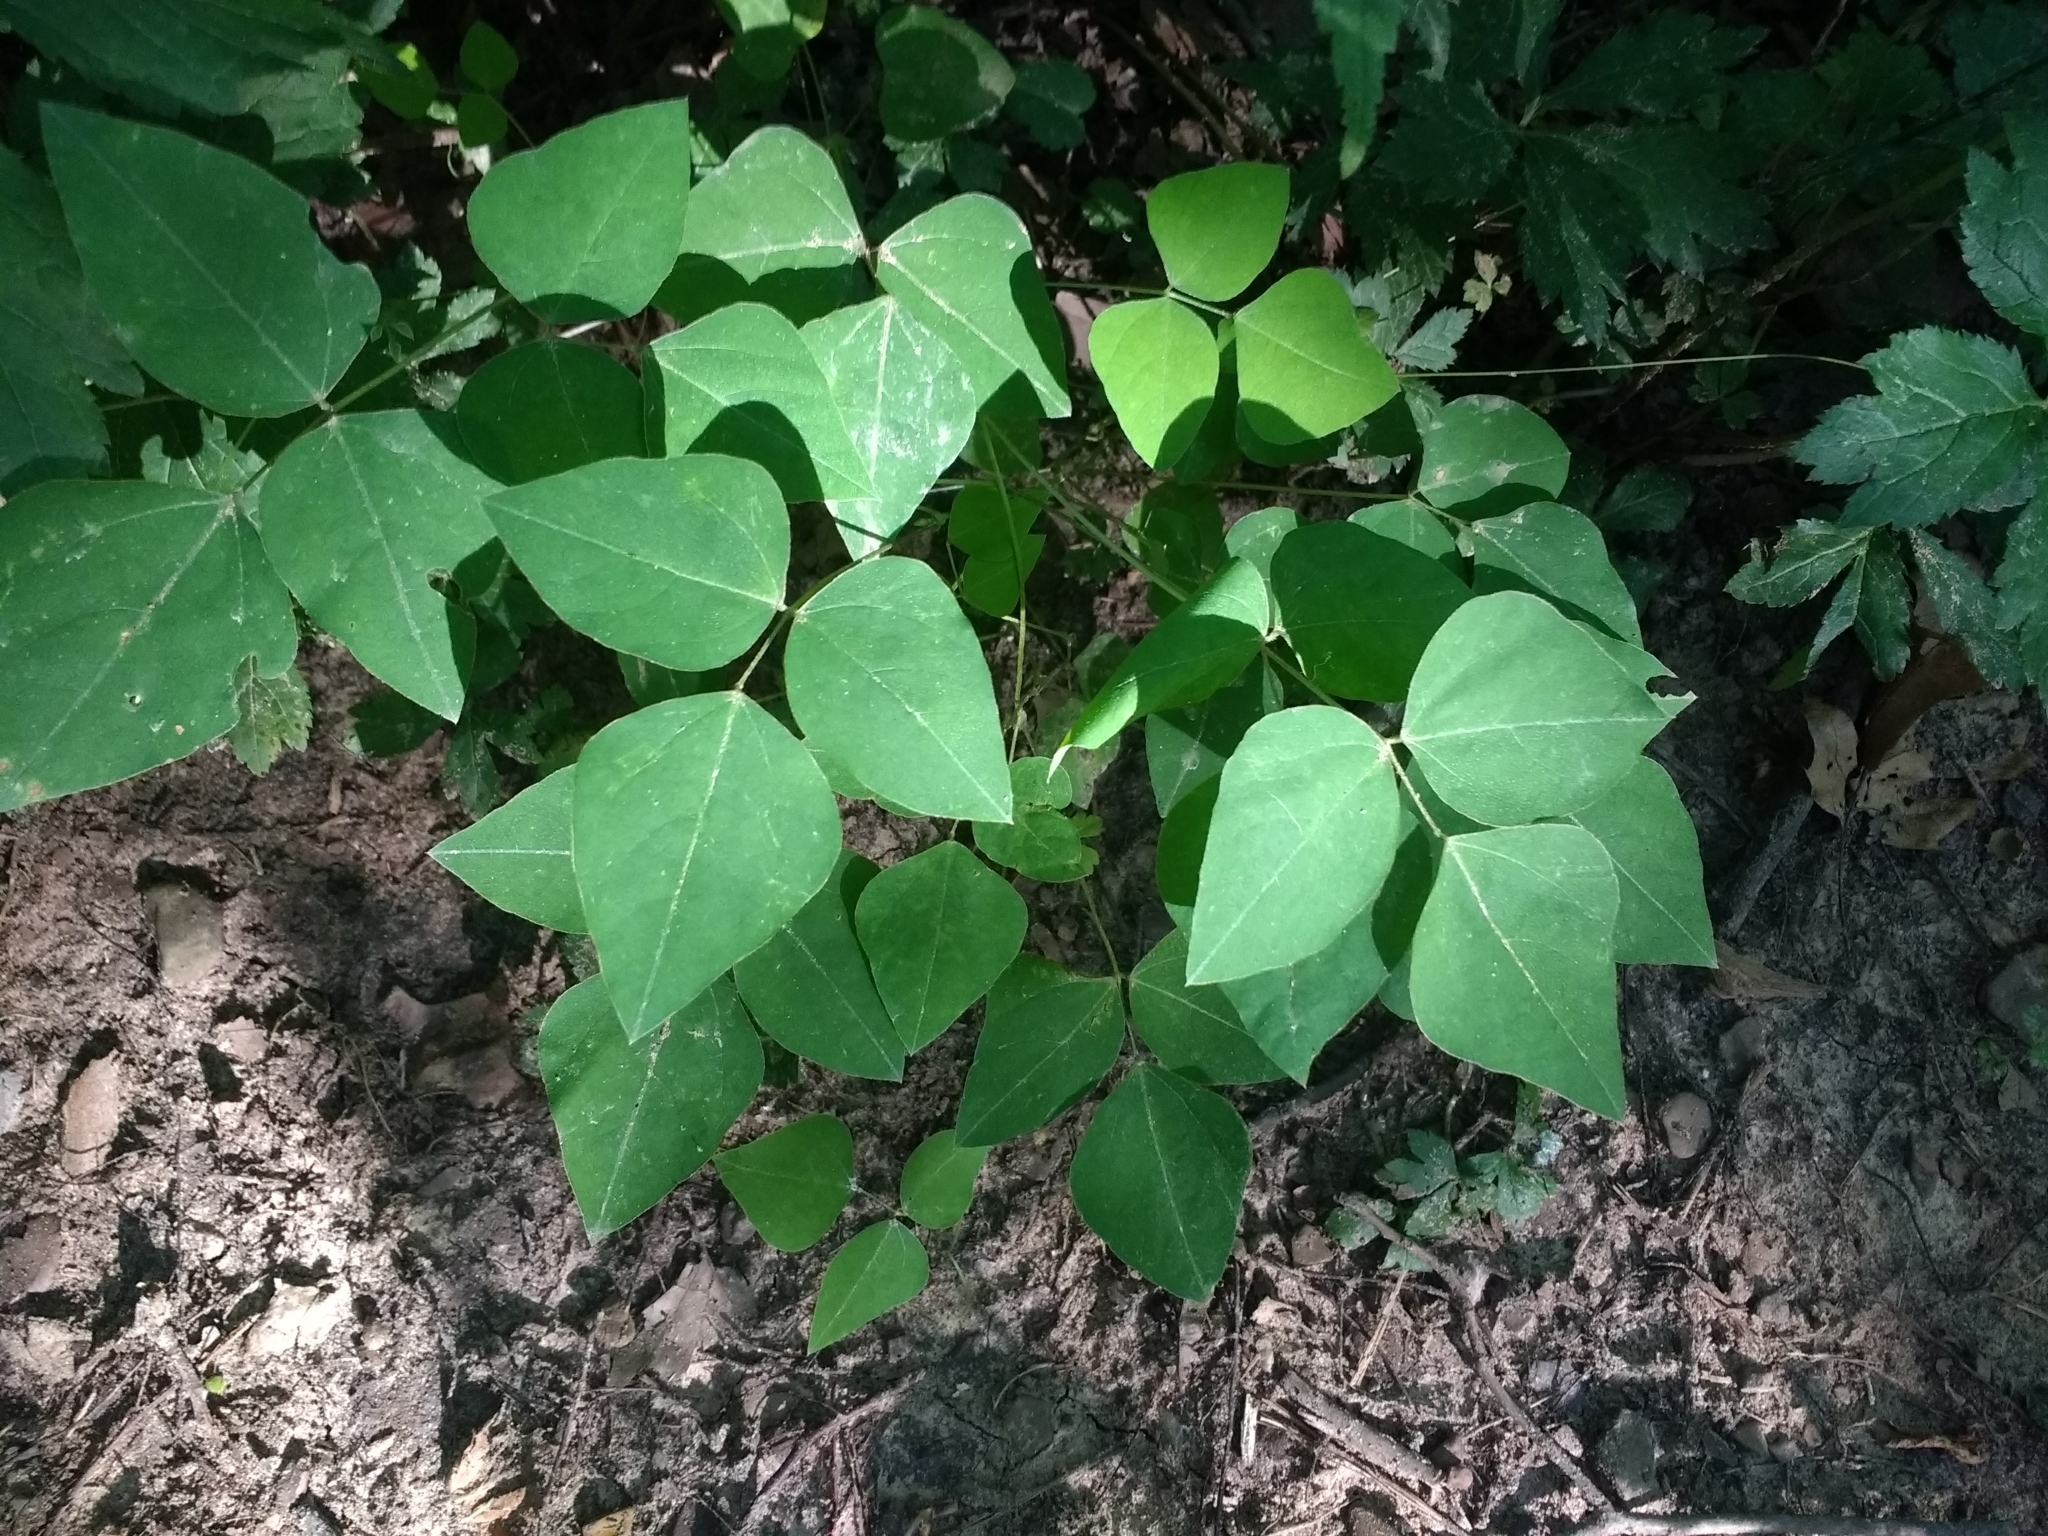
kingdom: Plantae
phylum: Tracheophyta
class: Magnoliopsida
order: Fabales
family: Fabaceae
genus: Amphicarpaea
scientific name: Amphicarpaea bracteata
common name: American hog peanut
